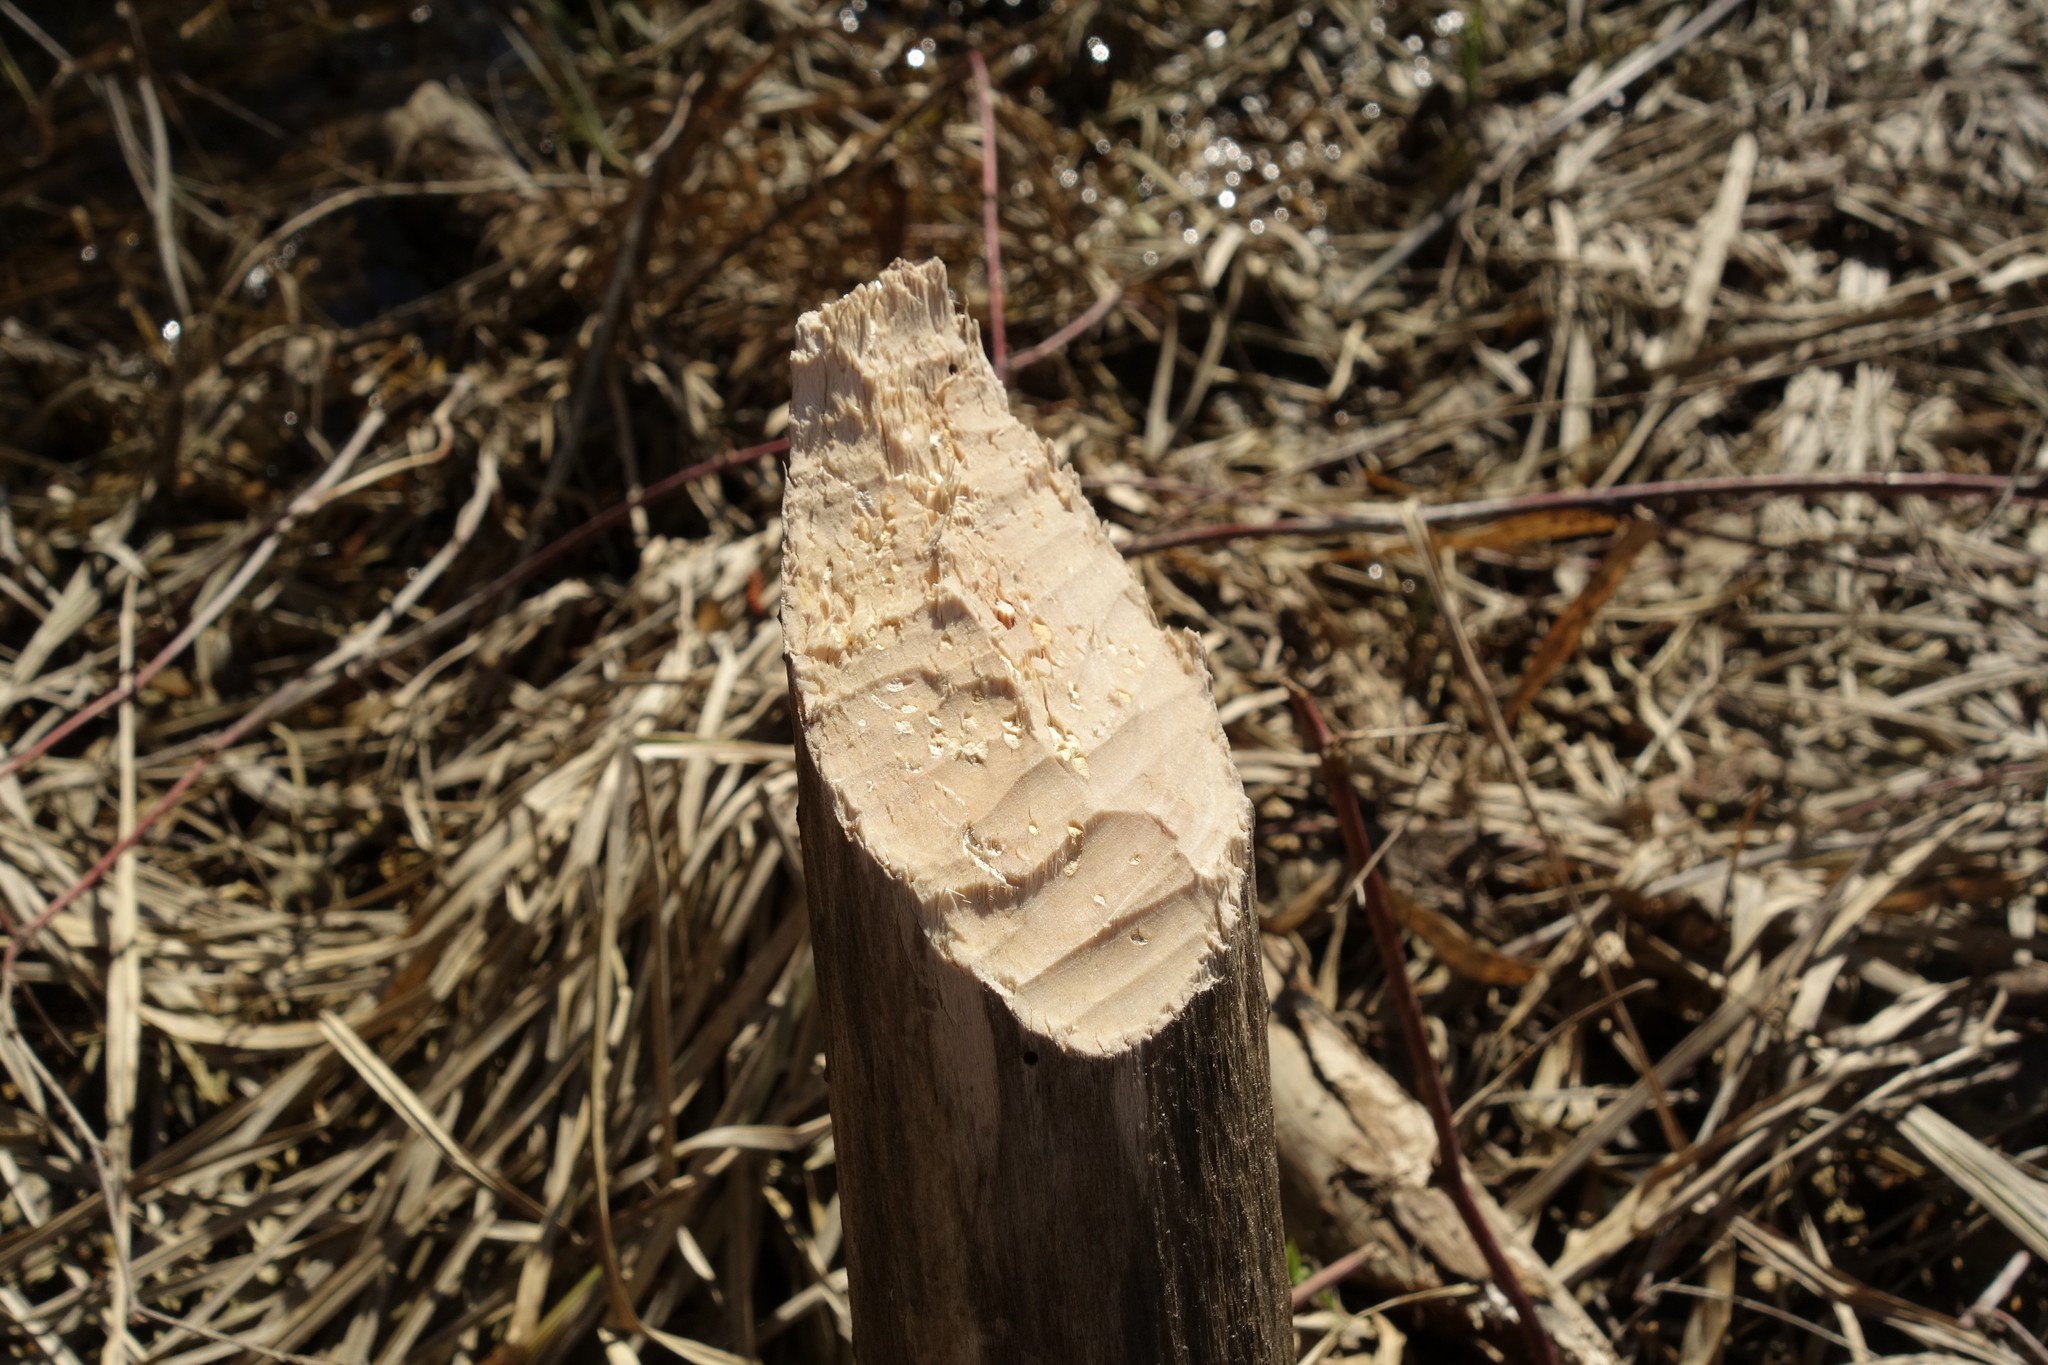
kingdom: Animalia
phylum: Chordata
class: Mammalia
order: Rodentia
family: Castoridae
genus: Castor
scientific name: Castor fiber
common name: Eurasian beaver
